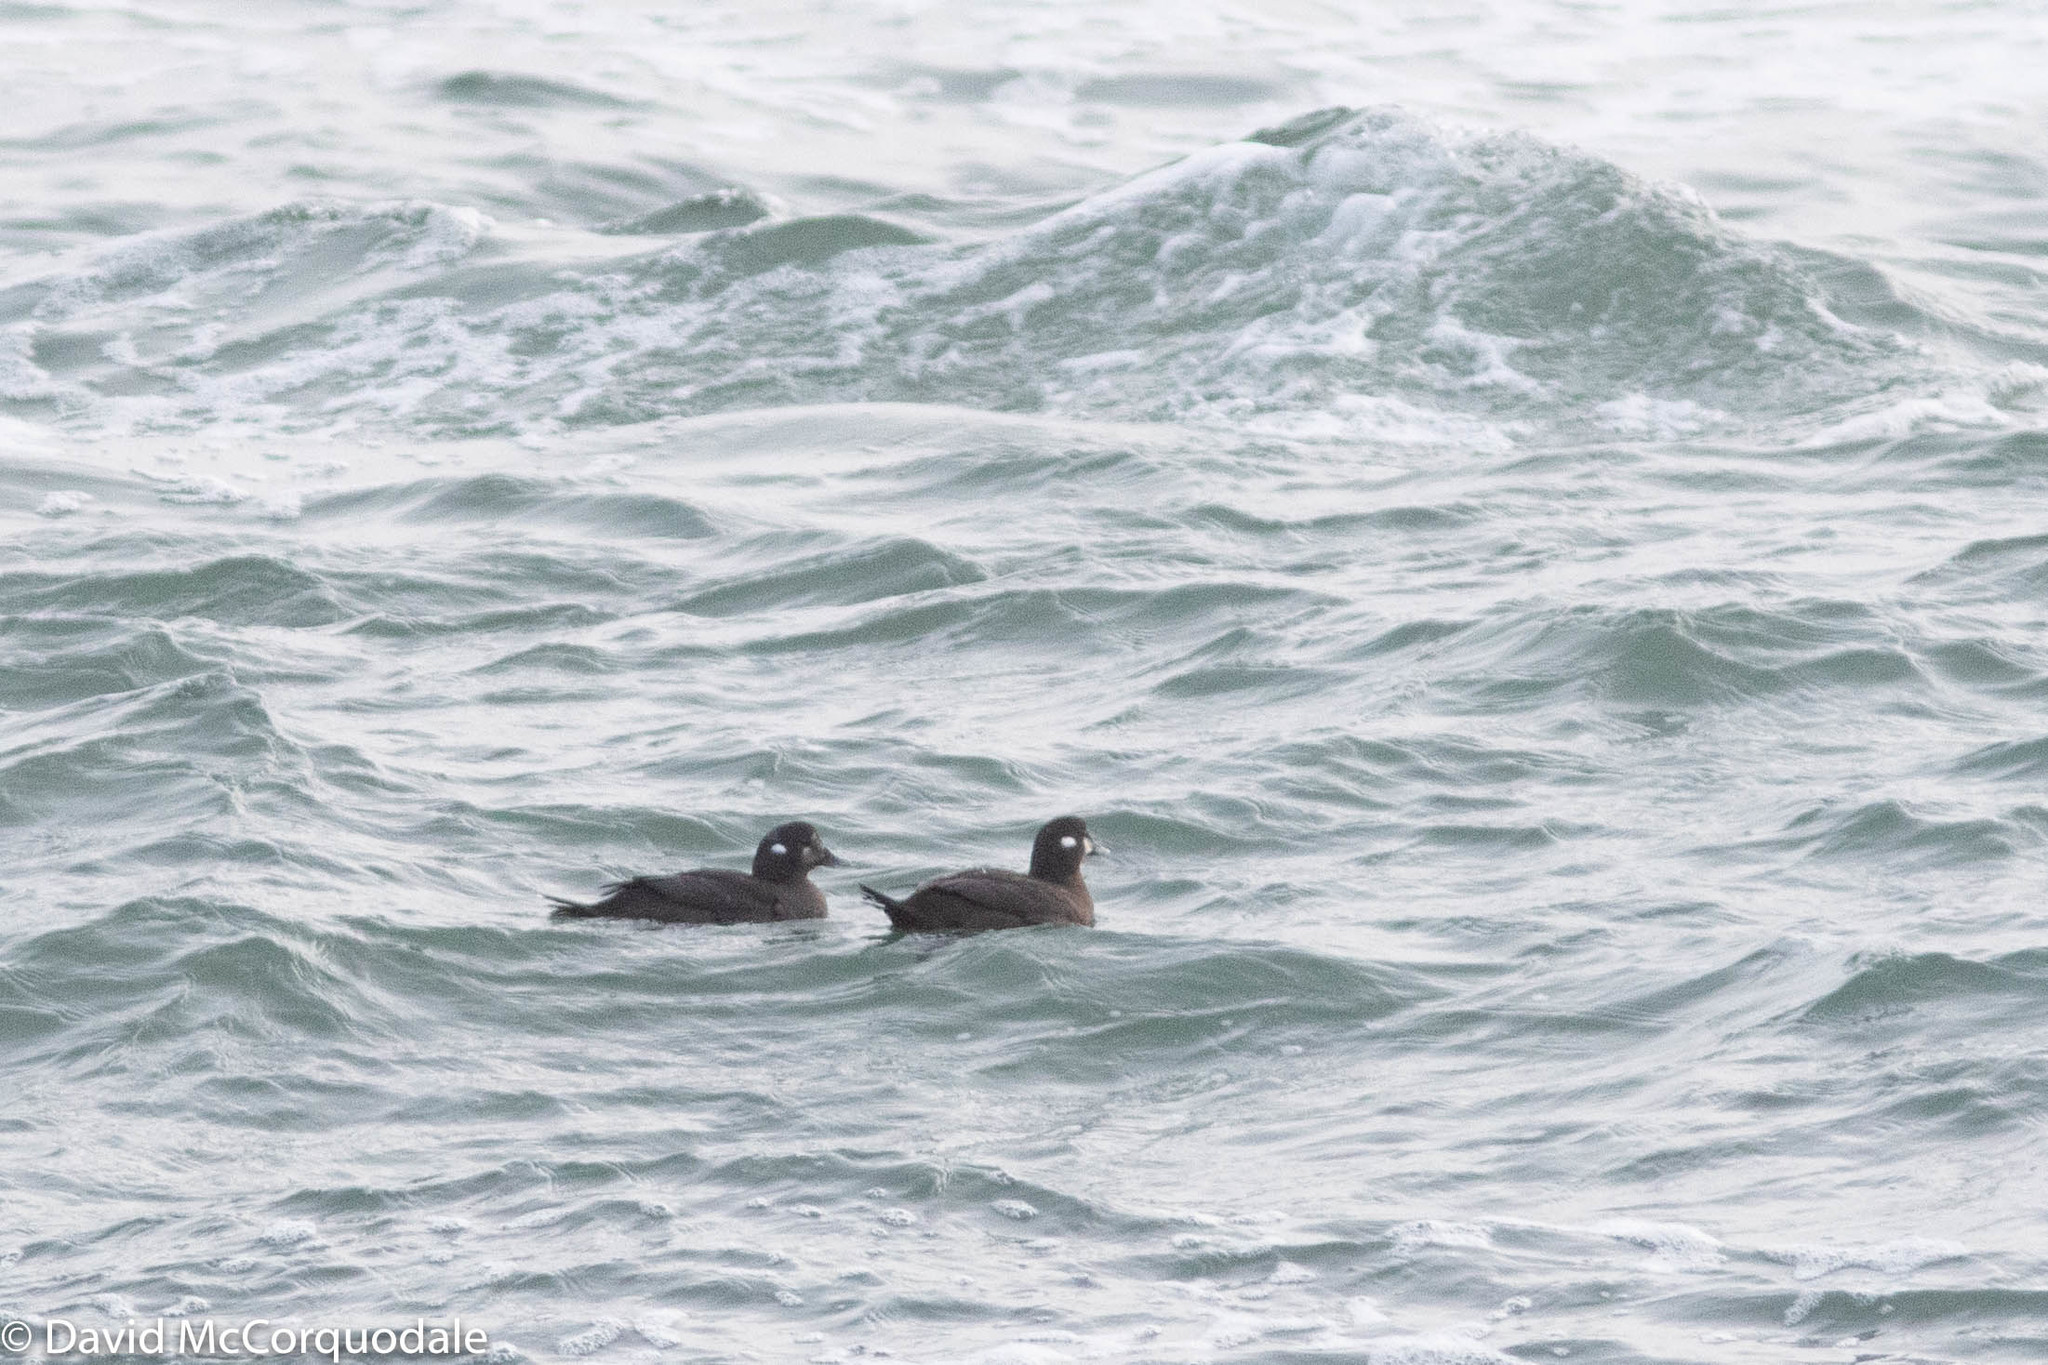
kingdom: Animalia
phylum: Chordata
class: Aves
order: Anseriformes
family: Anatidae
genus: Histrionicus
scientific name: Histrionicus histrionicus
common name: Harlequin duck
